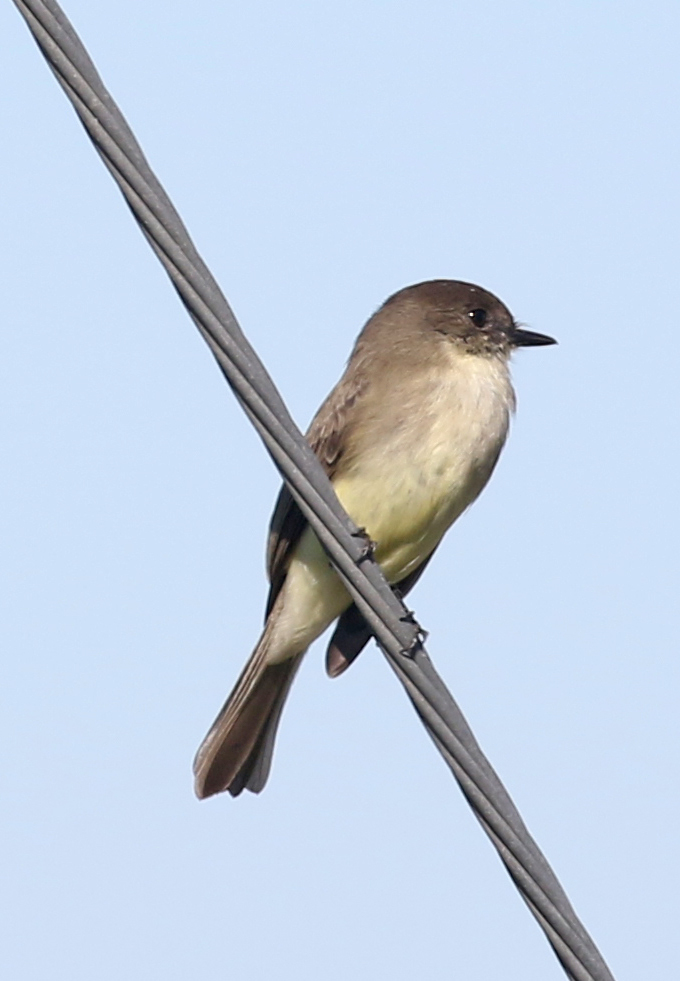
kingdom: Animalia
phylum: Chordata
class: Aves
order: Passeriformes
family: Tyrannidae
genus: Sayornis
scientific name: Sayornis phoebe
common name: Eastern phoebe
